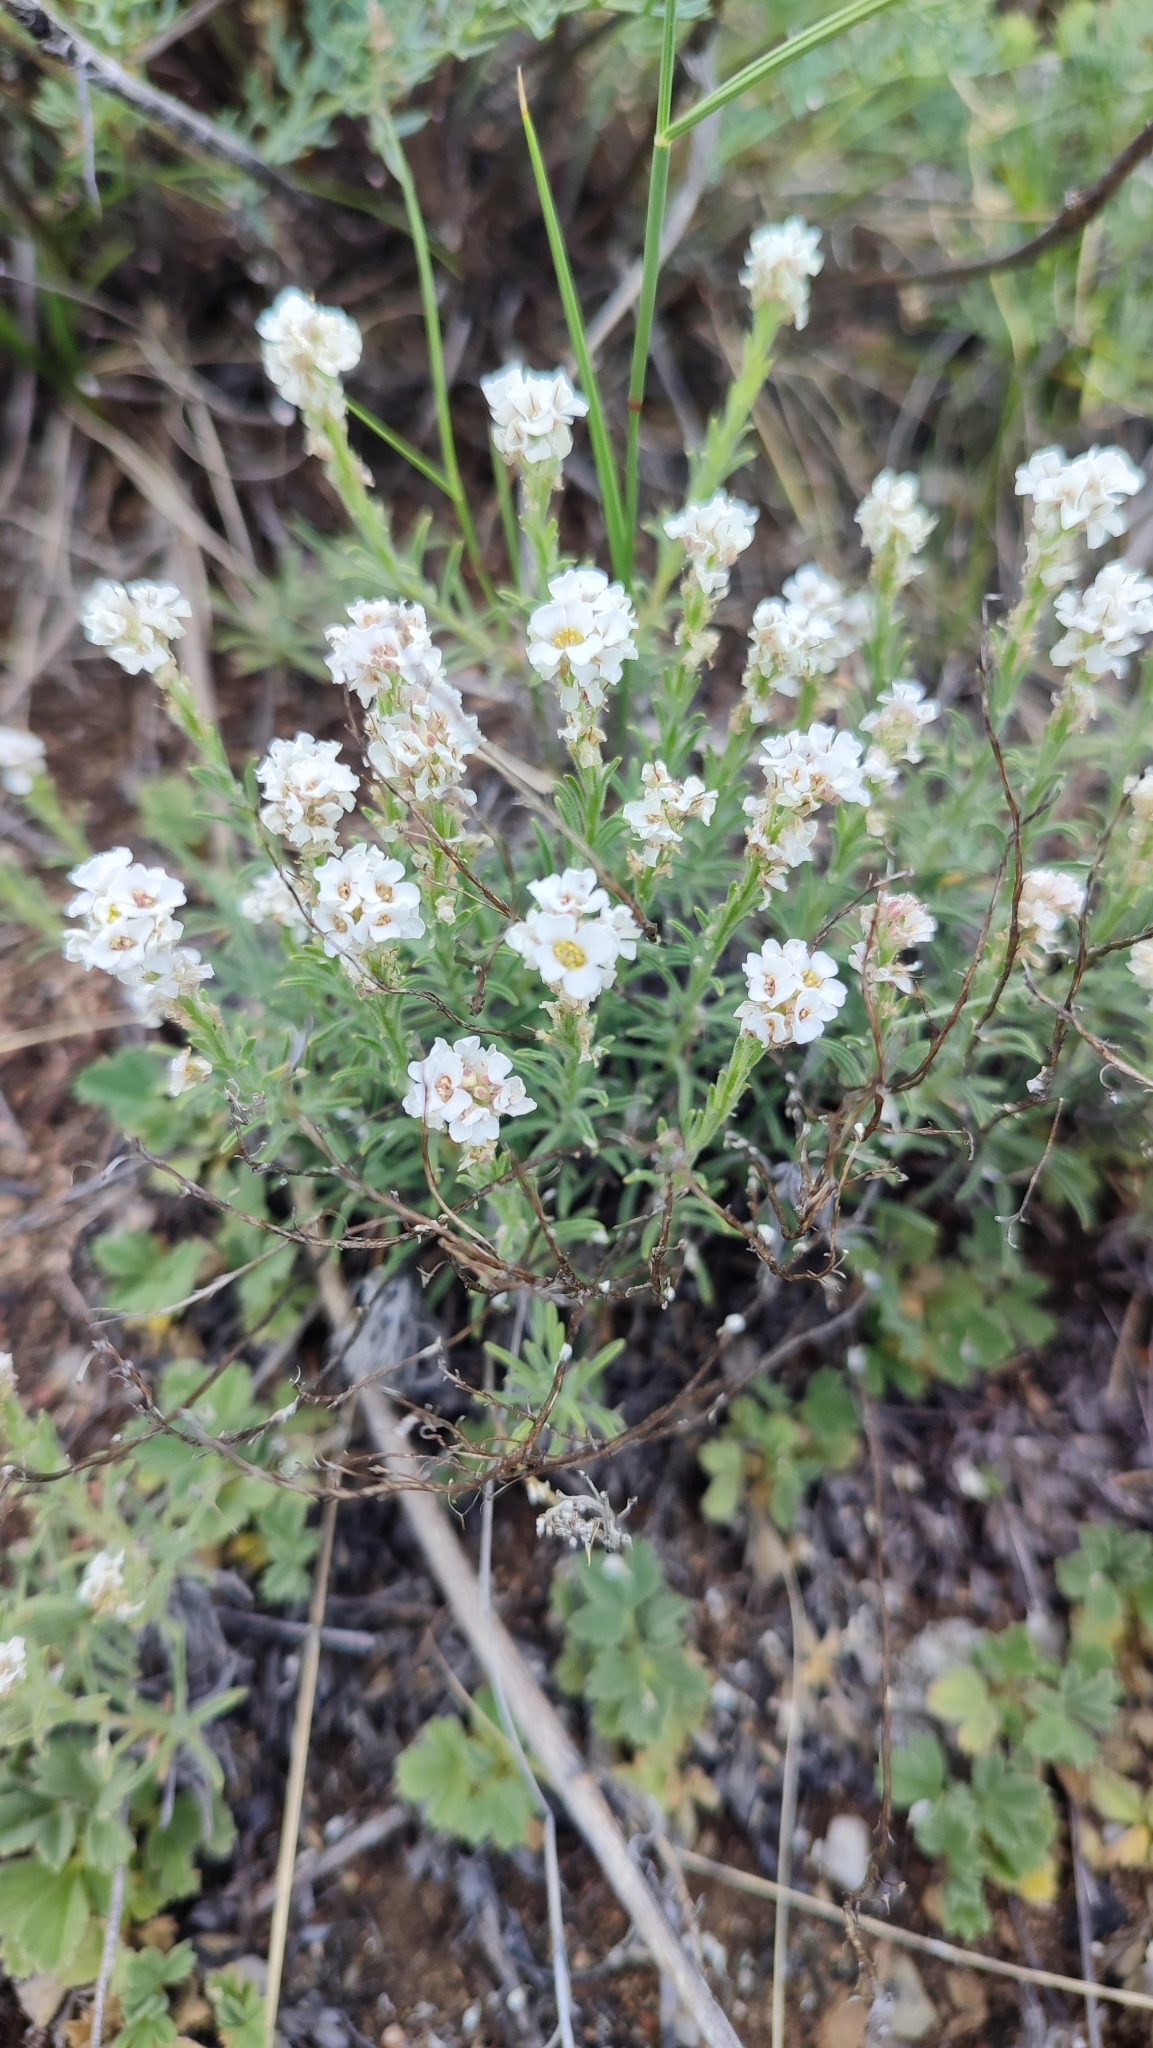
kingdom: Plantae
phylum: Tracheophyta
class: Magnoliopsida
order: Brassicales
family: Brassicaceae
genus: Stevenia
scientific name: Stevenia tenuifolia
